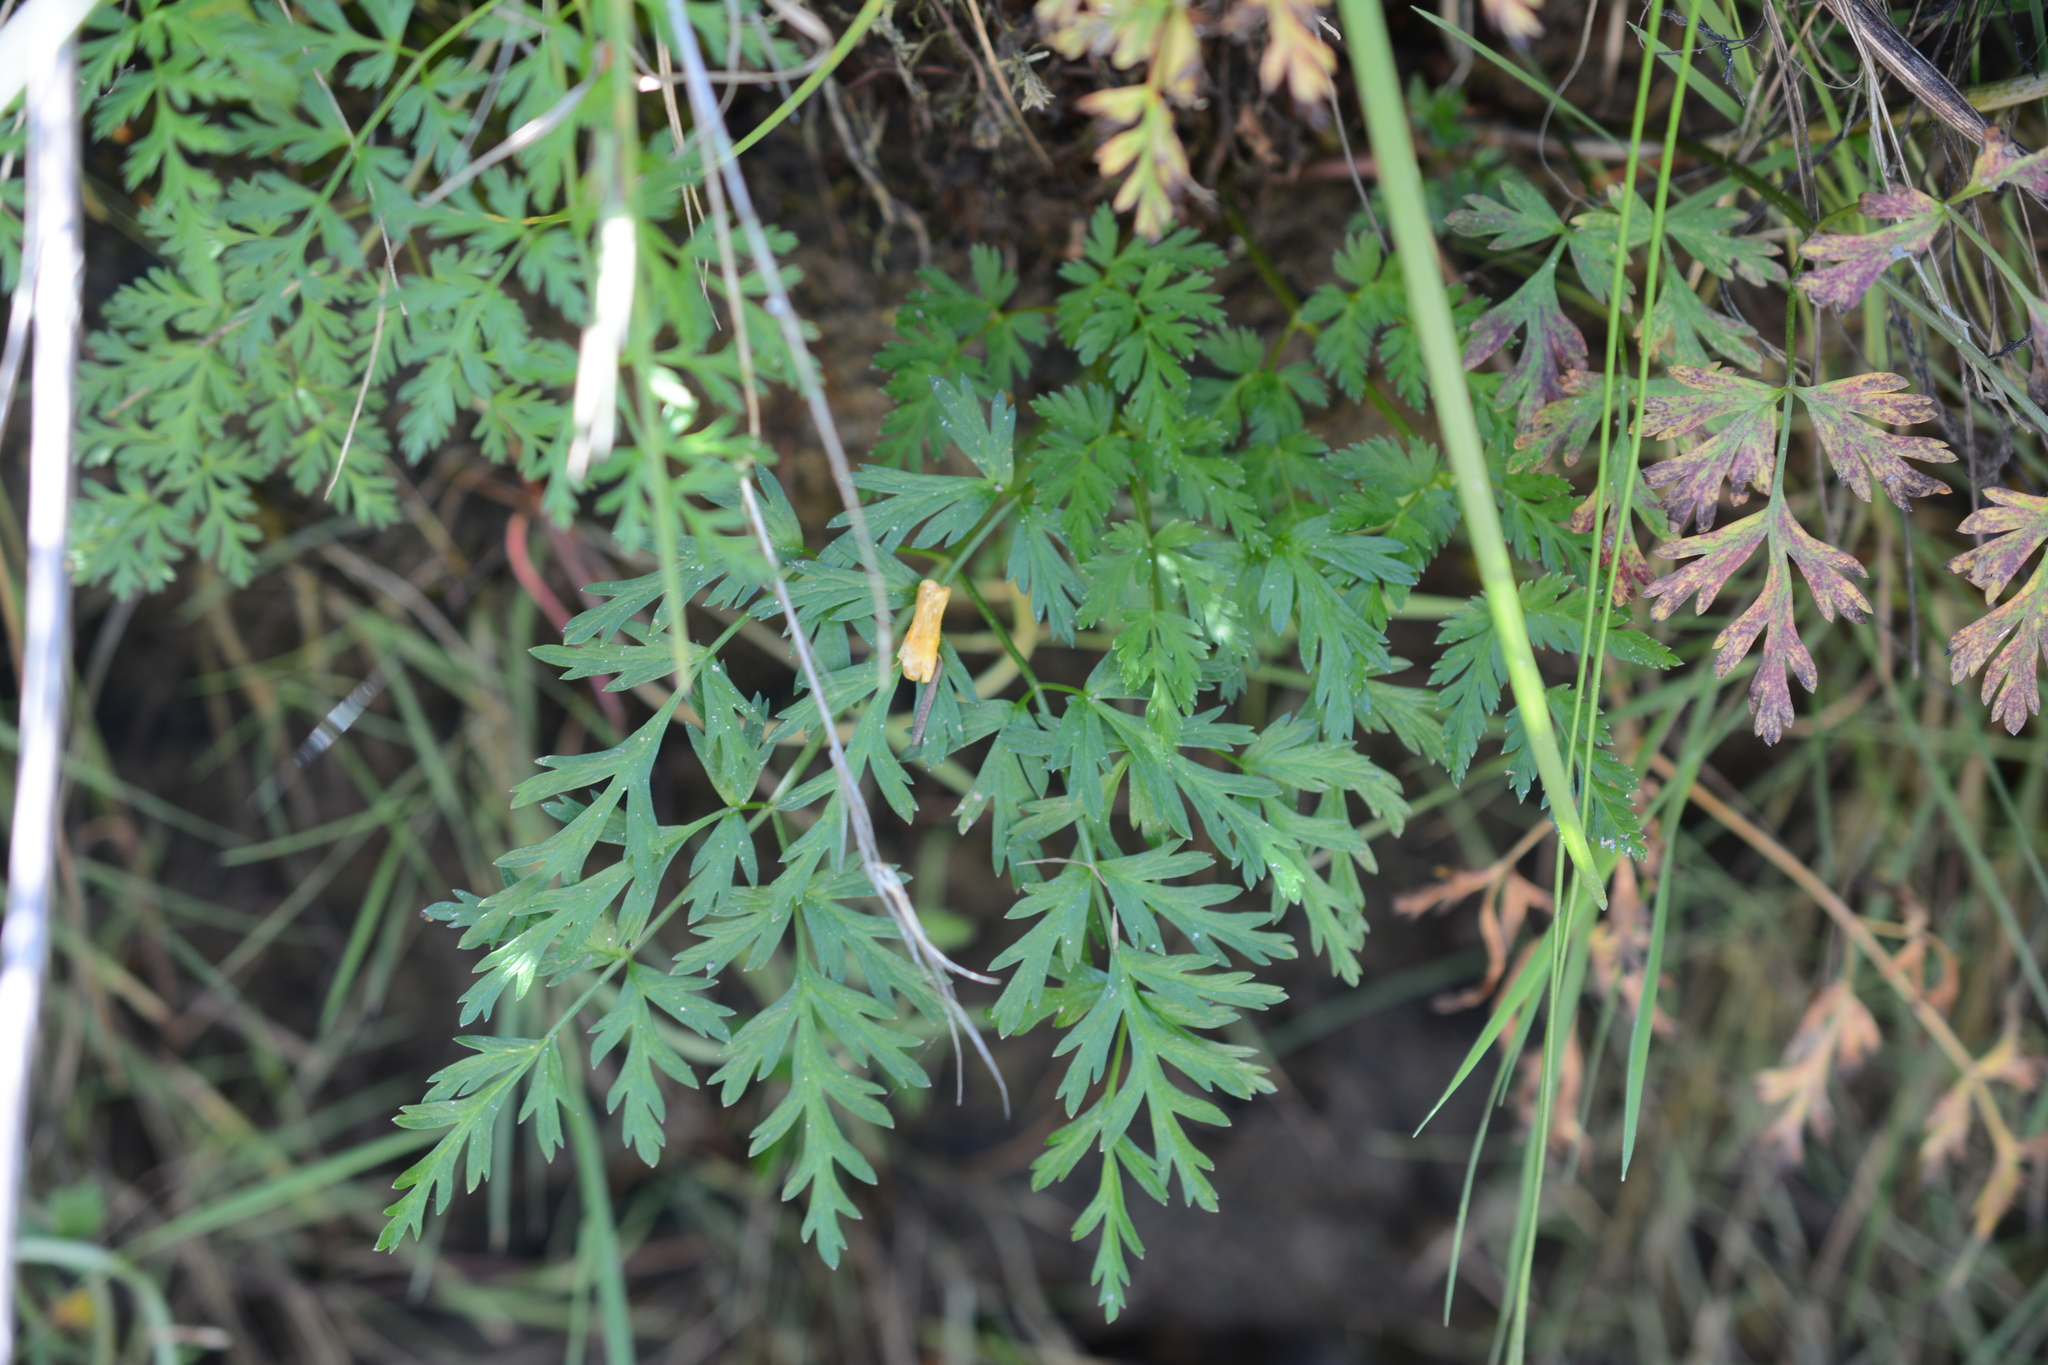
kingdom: Plantae
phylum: Tracheophyta
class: Magnoliopsida
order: Apiales
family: Apiaceae
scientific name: Apiaceae
